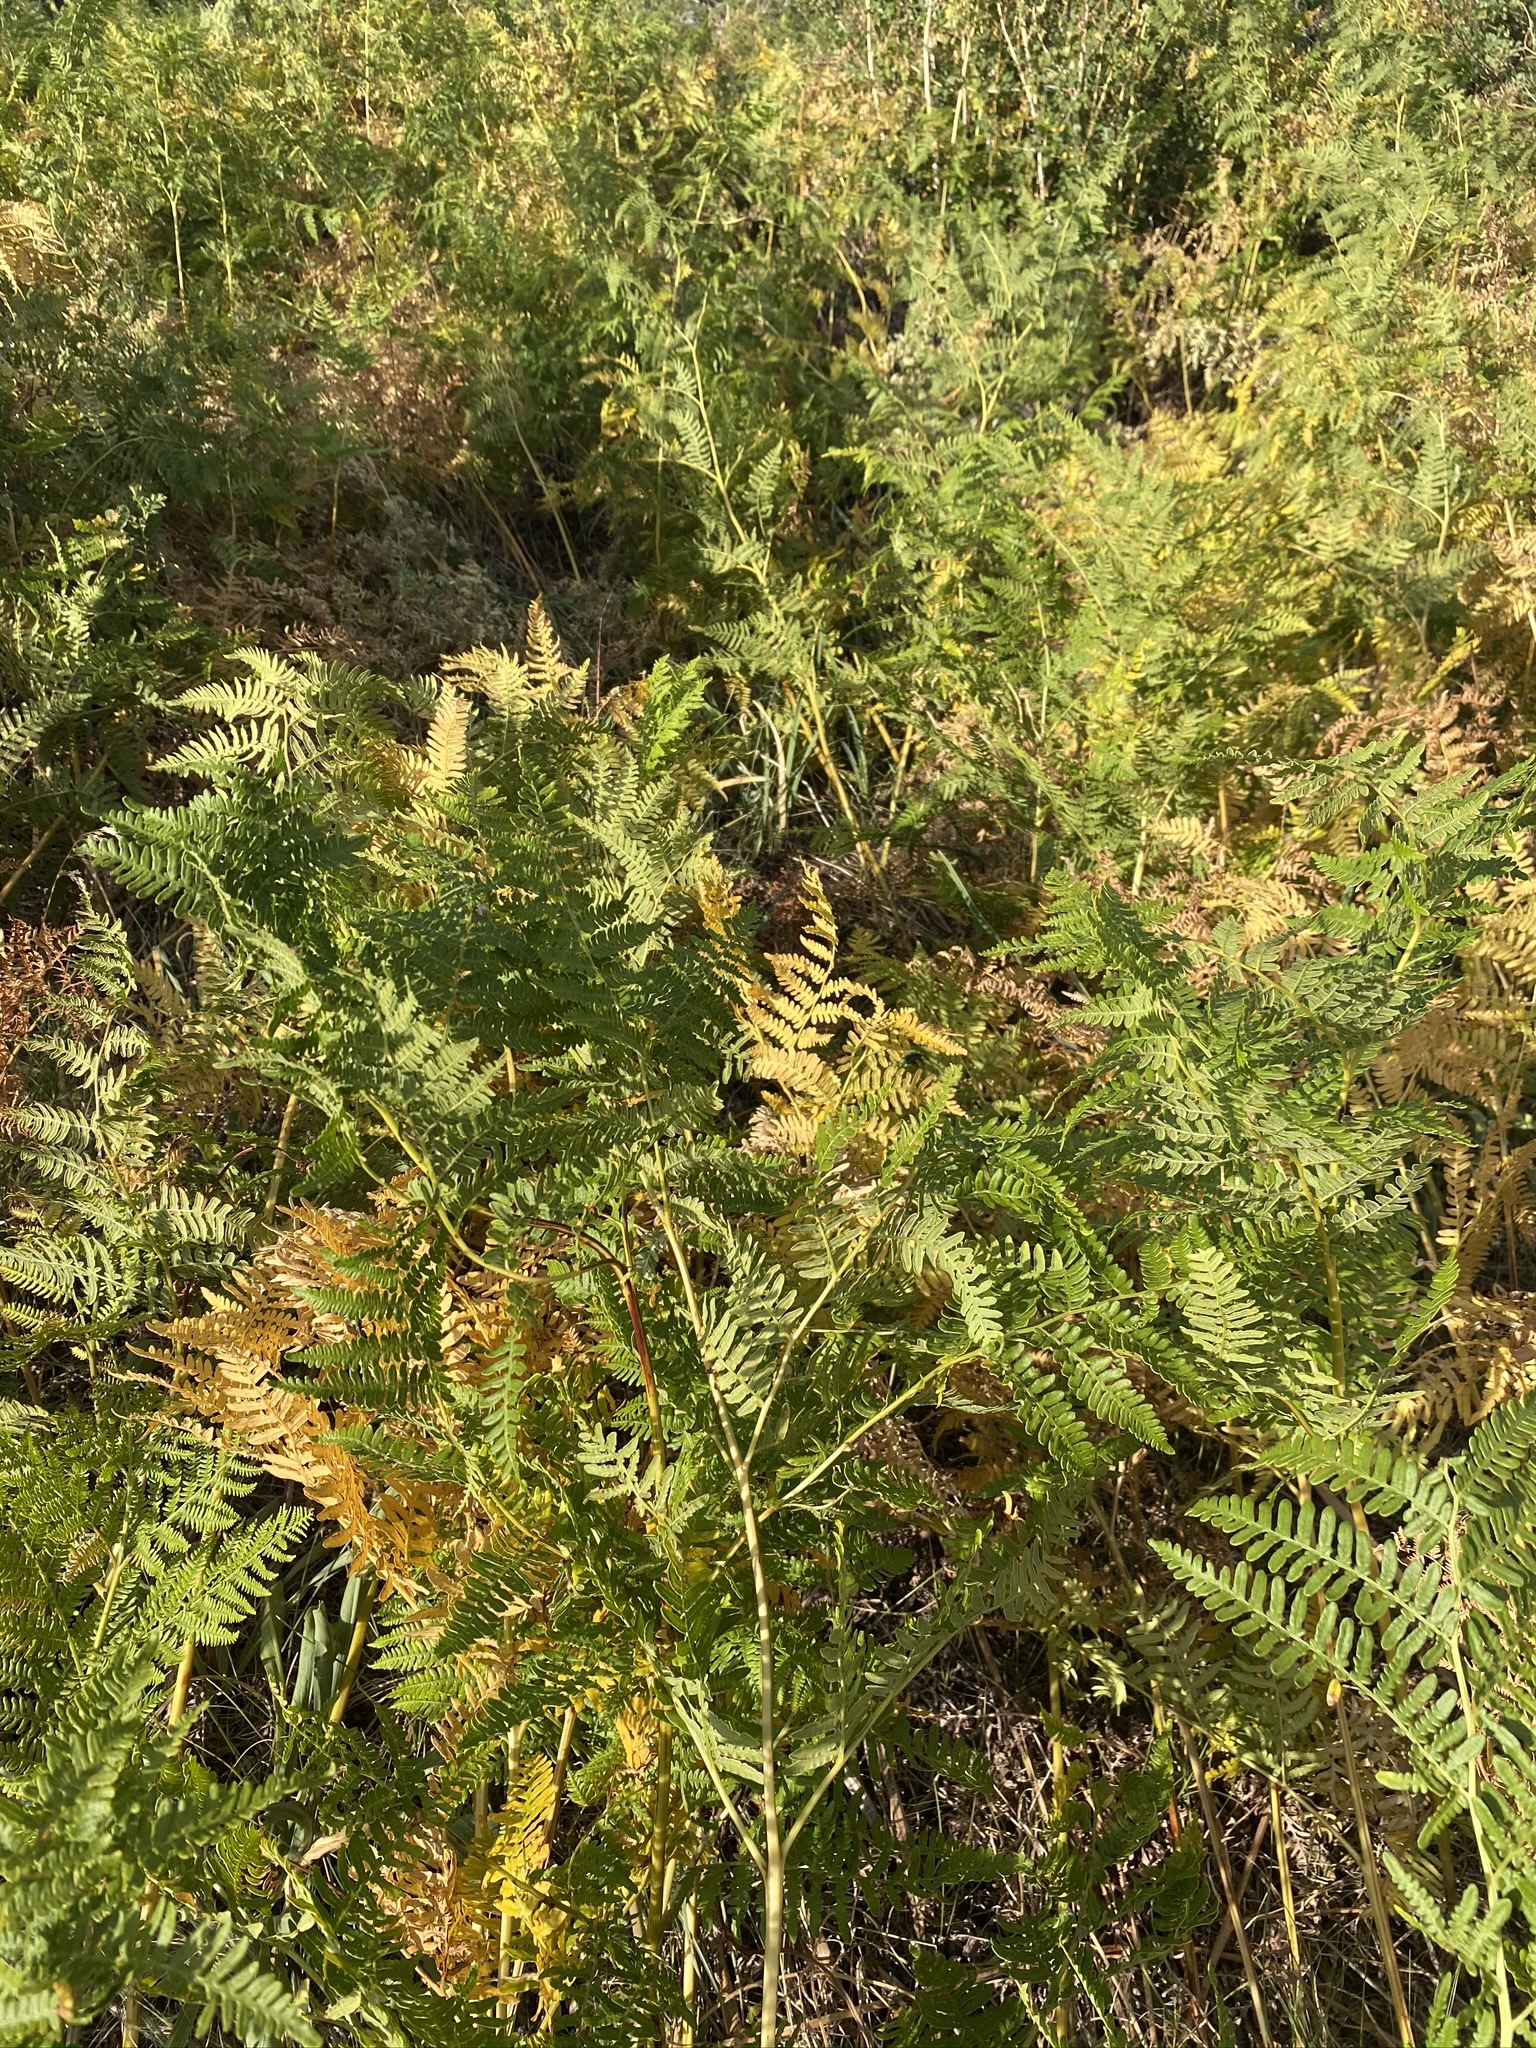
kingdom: Plantae
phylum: Tracheophyta
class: Polypodiopsida
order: Polypodiales
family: Dennstaedtiaceae
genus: Pteridium
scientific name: Pteridium aquilinum
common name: Bracken
